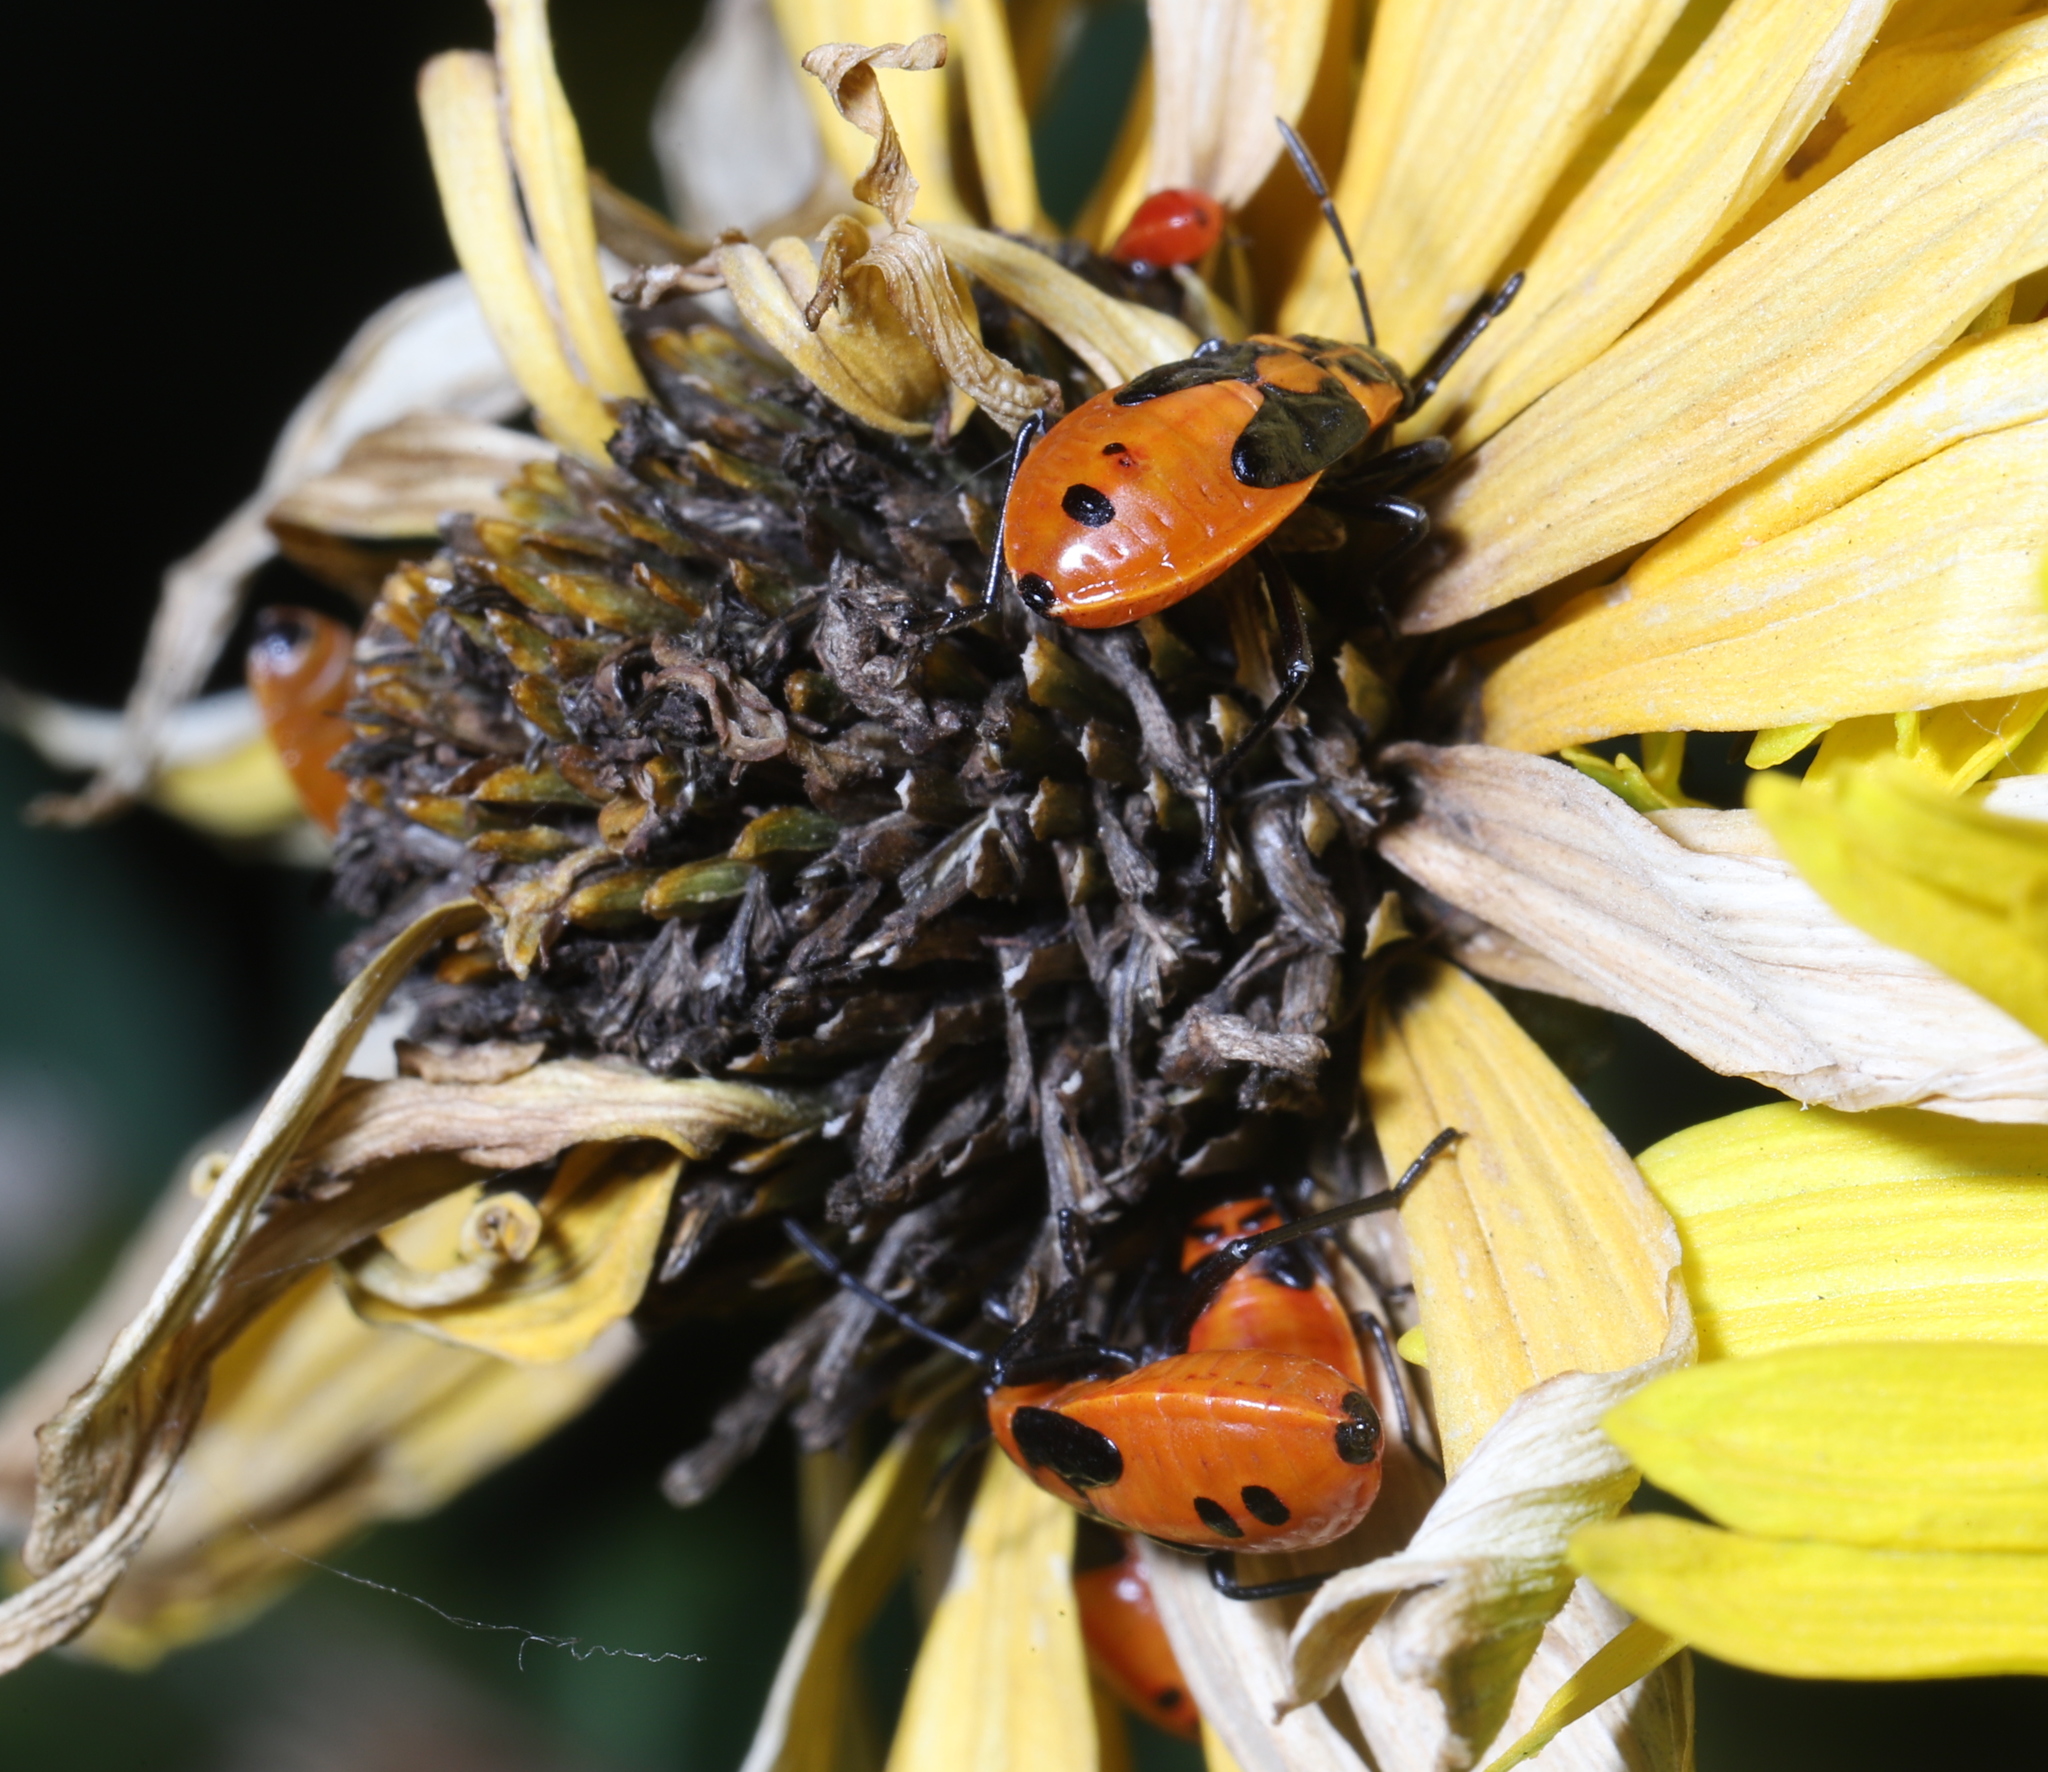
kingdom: Animalia
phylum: Arthropoda
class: Insecta
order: Hemiptera
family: Lygaeidae
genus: Lygaeus
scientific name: Lygaeus turcicus
